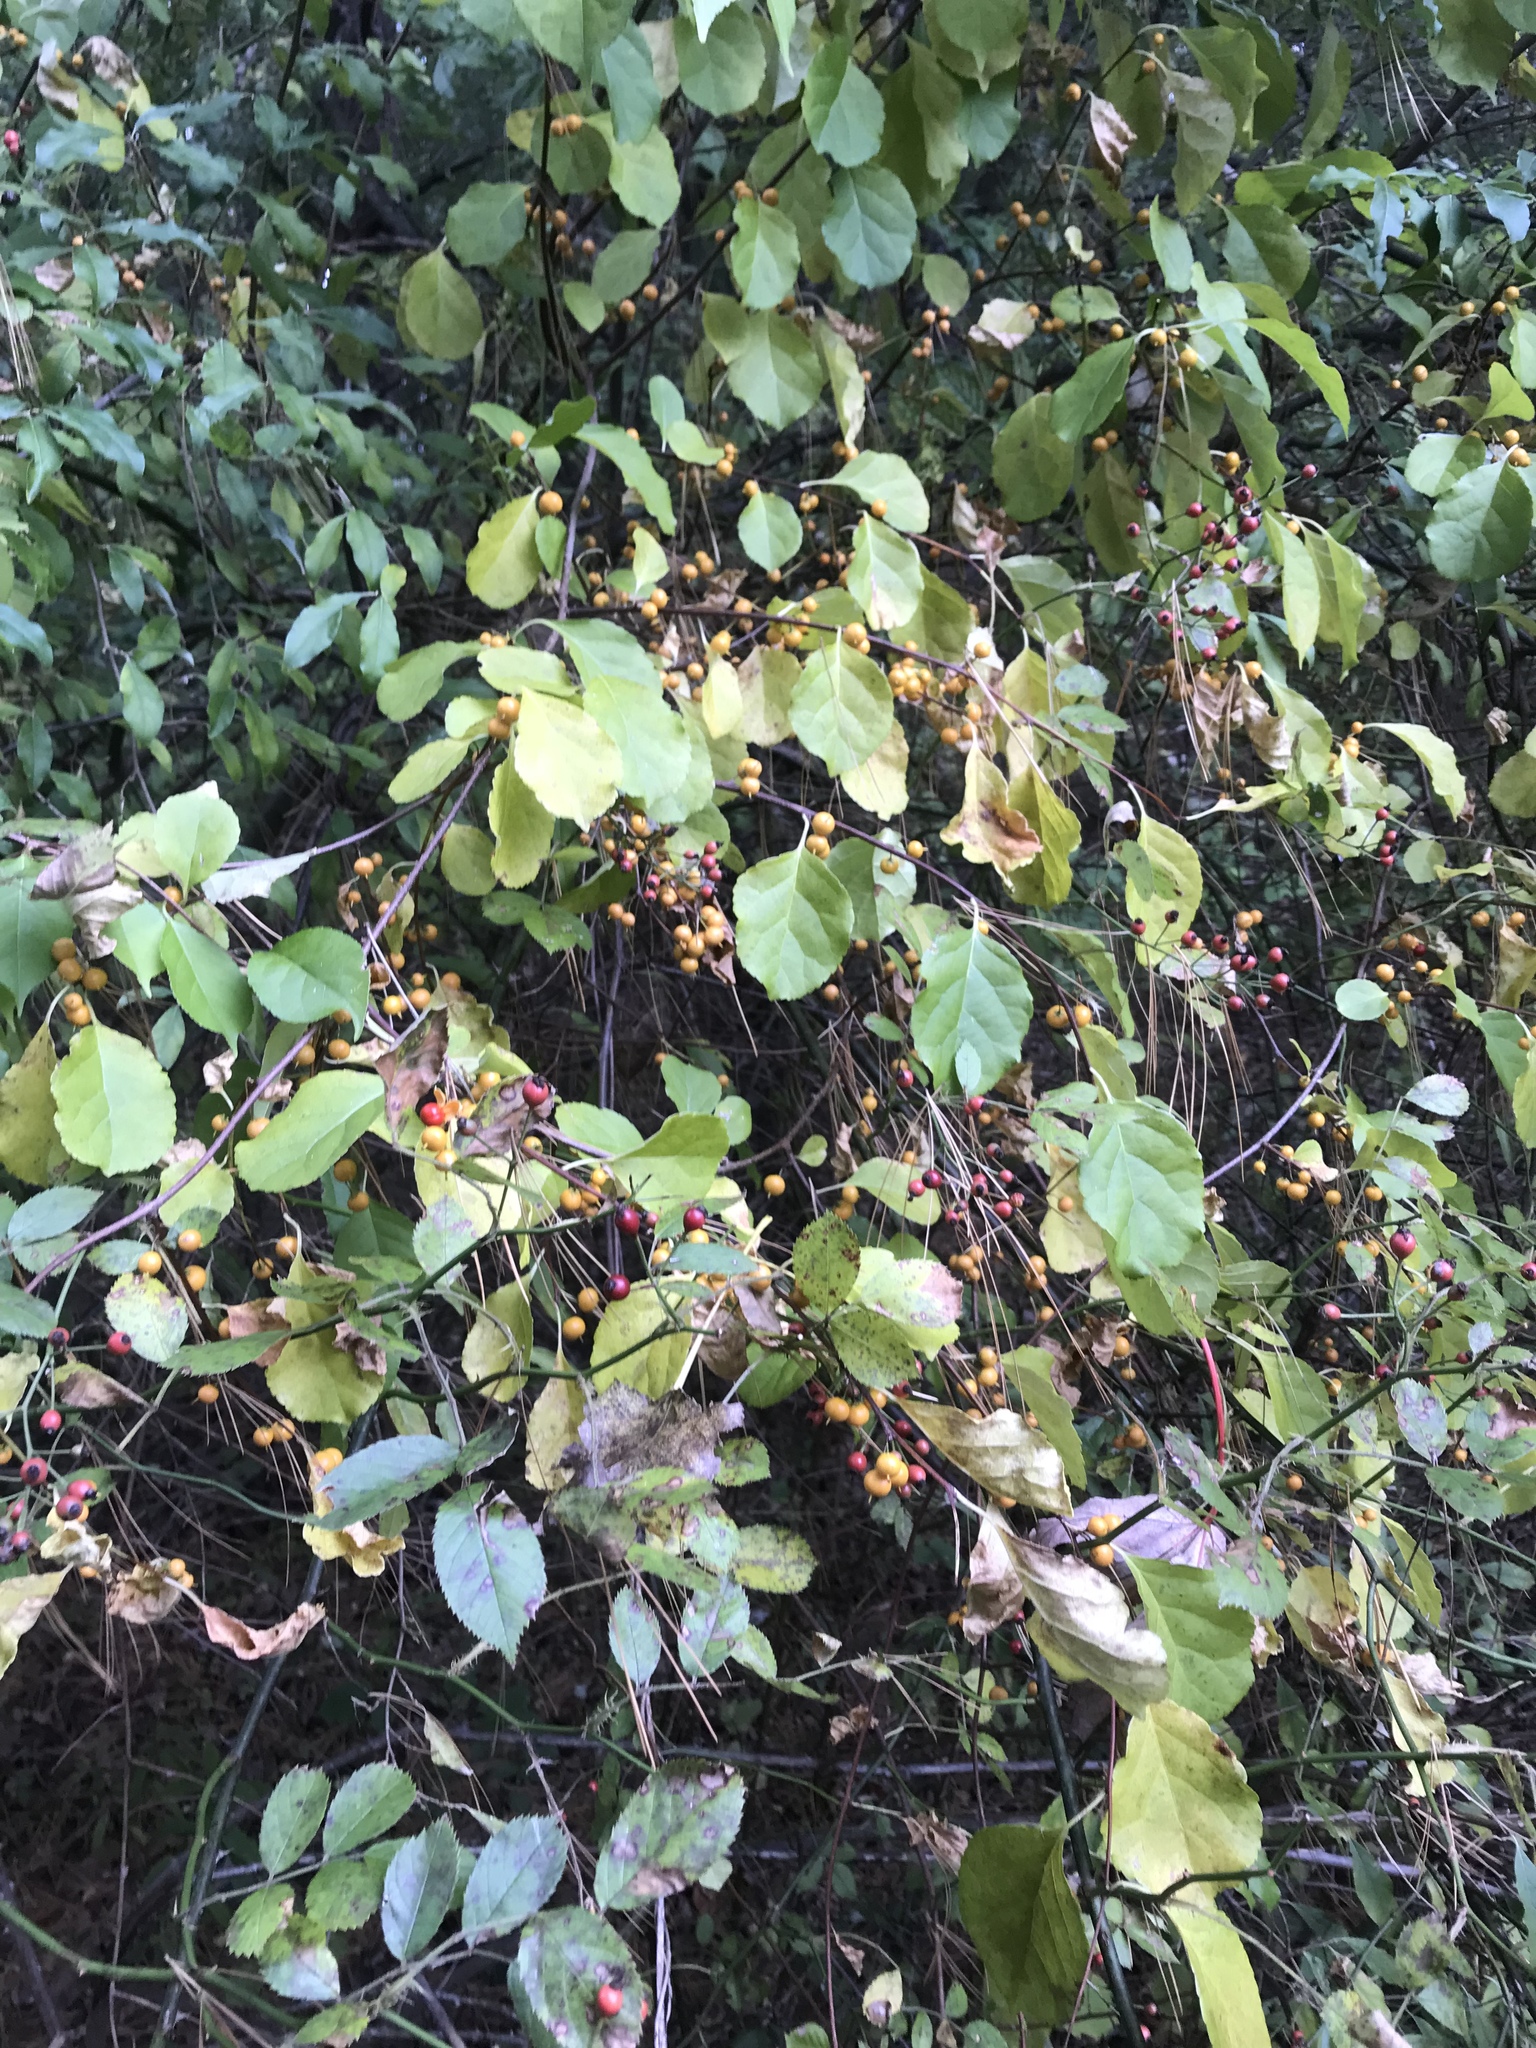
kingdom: Plantae
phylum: Tracheophyta
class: Magnoliopsida
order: Celastrales
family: Celastraceae
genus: Celastrus
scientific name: Celastrus orbiculatus
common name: Oriental bittersweet
